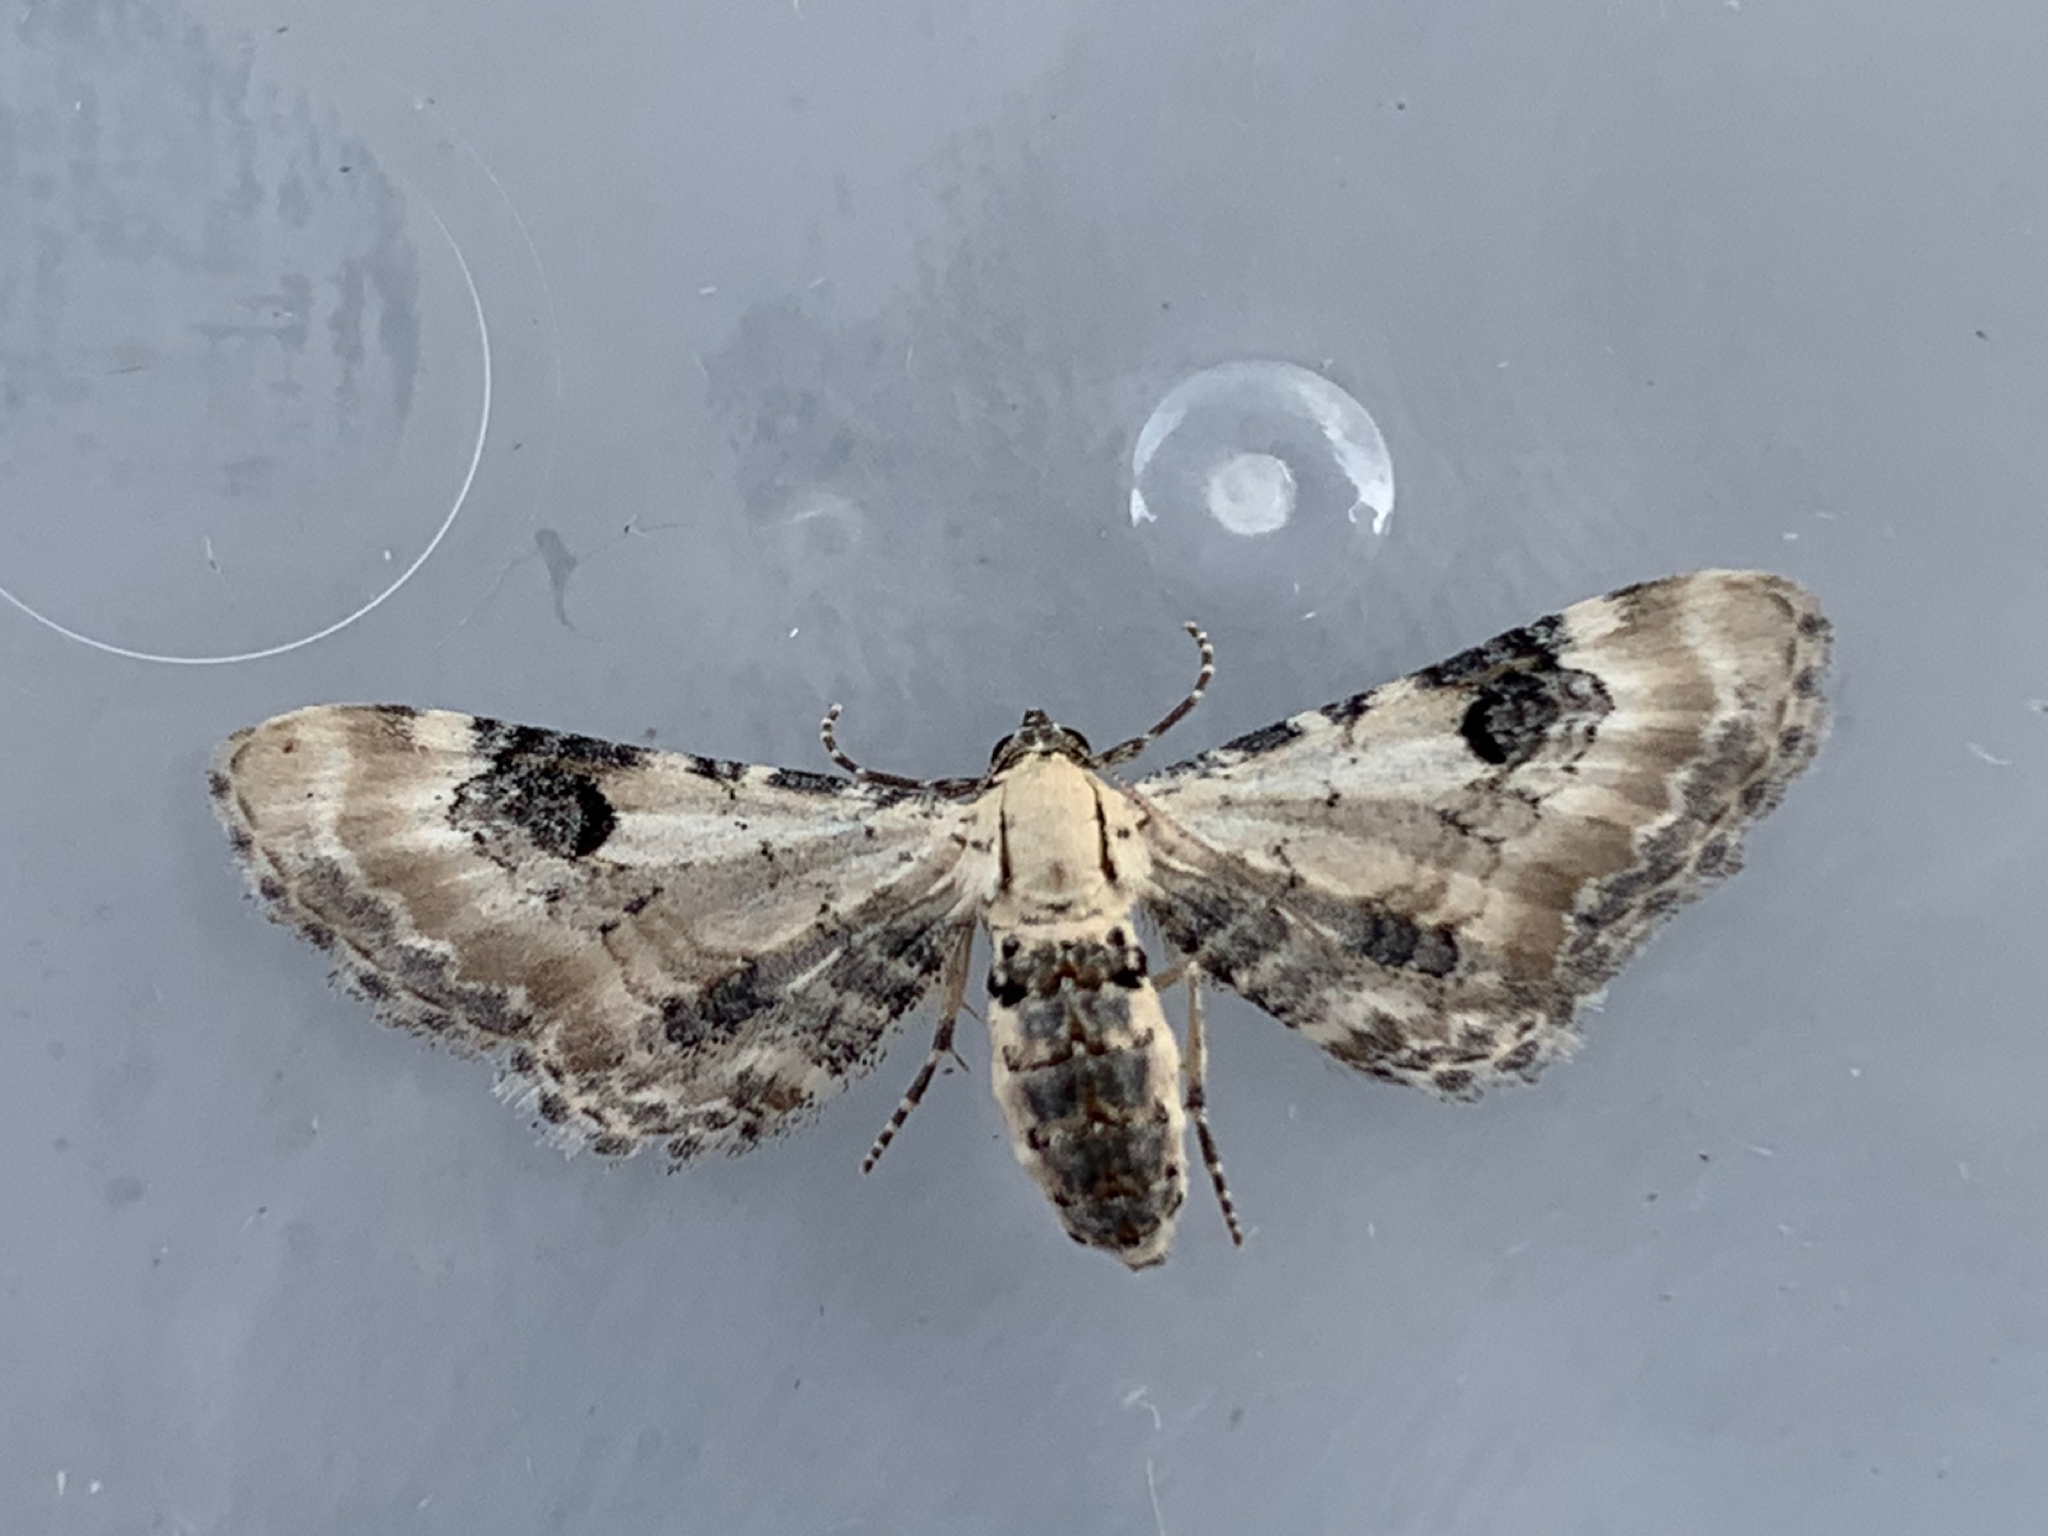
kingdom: Animalia
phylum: Arthropoda
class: Insecta
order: Lepidoptera
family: Geometridae
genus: Eupithecia
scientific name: Eupithecia centaureata
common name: Lime-speck pug
